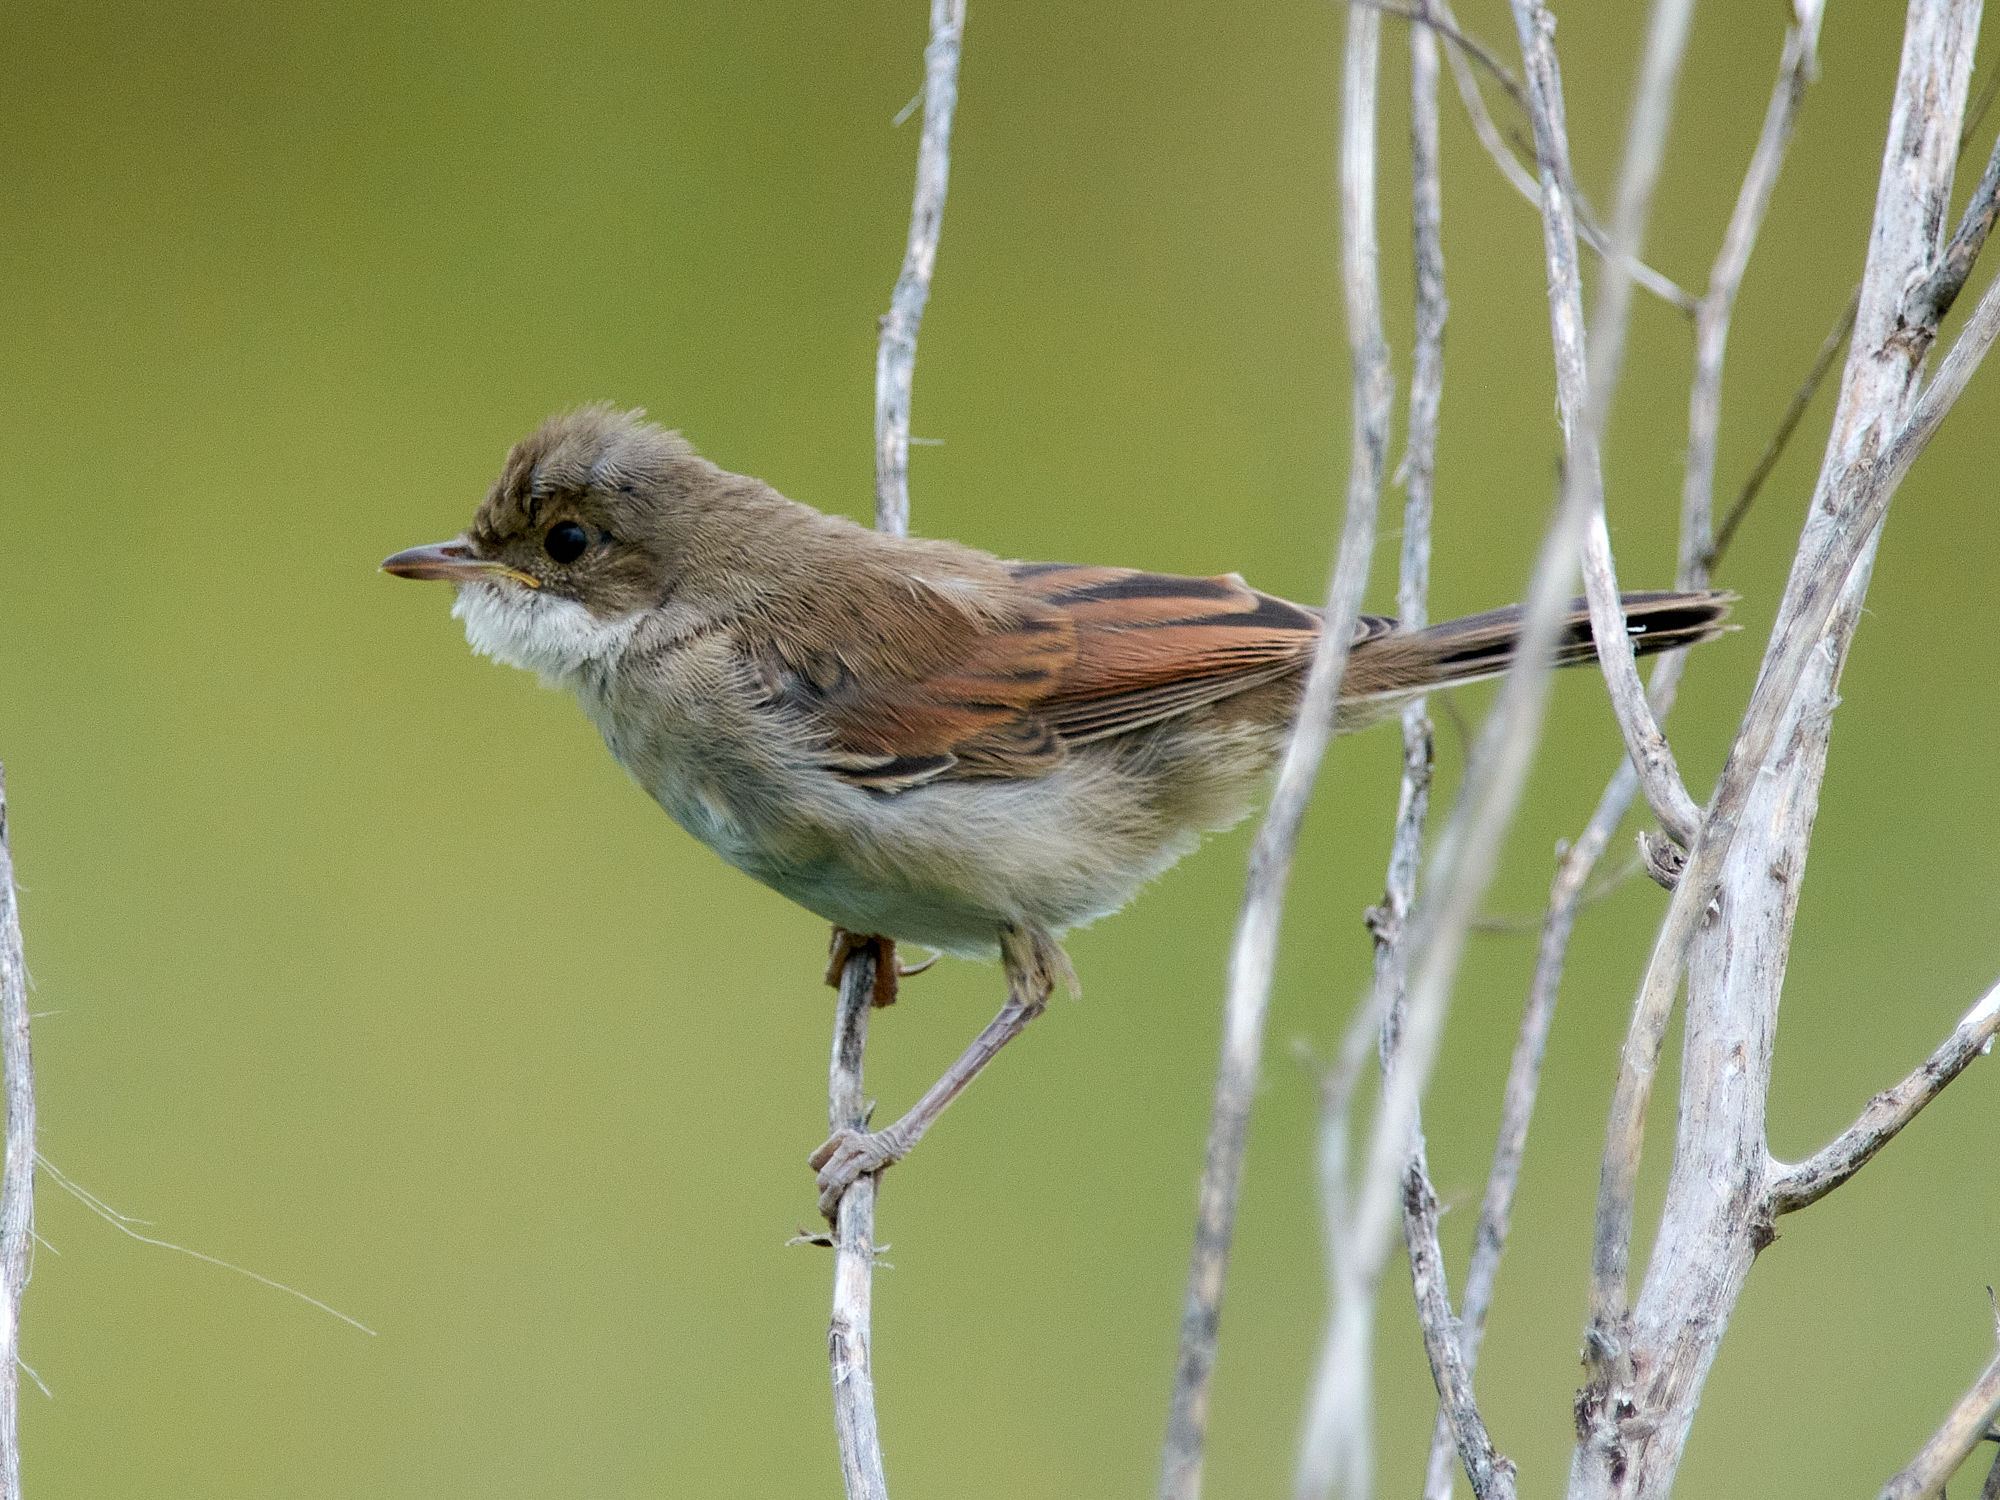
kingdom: Animalia
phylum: Chordata
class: Aves
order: Passeriformes
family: Sylviidae
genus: Sylvia
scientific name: Sylvia communis
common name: Common whitethroat
